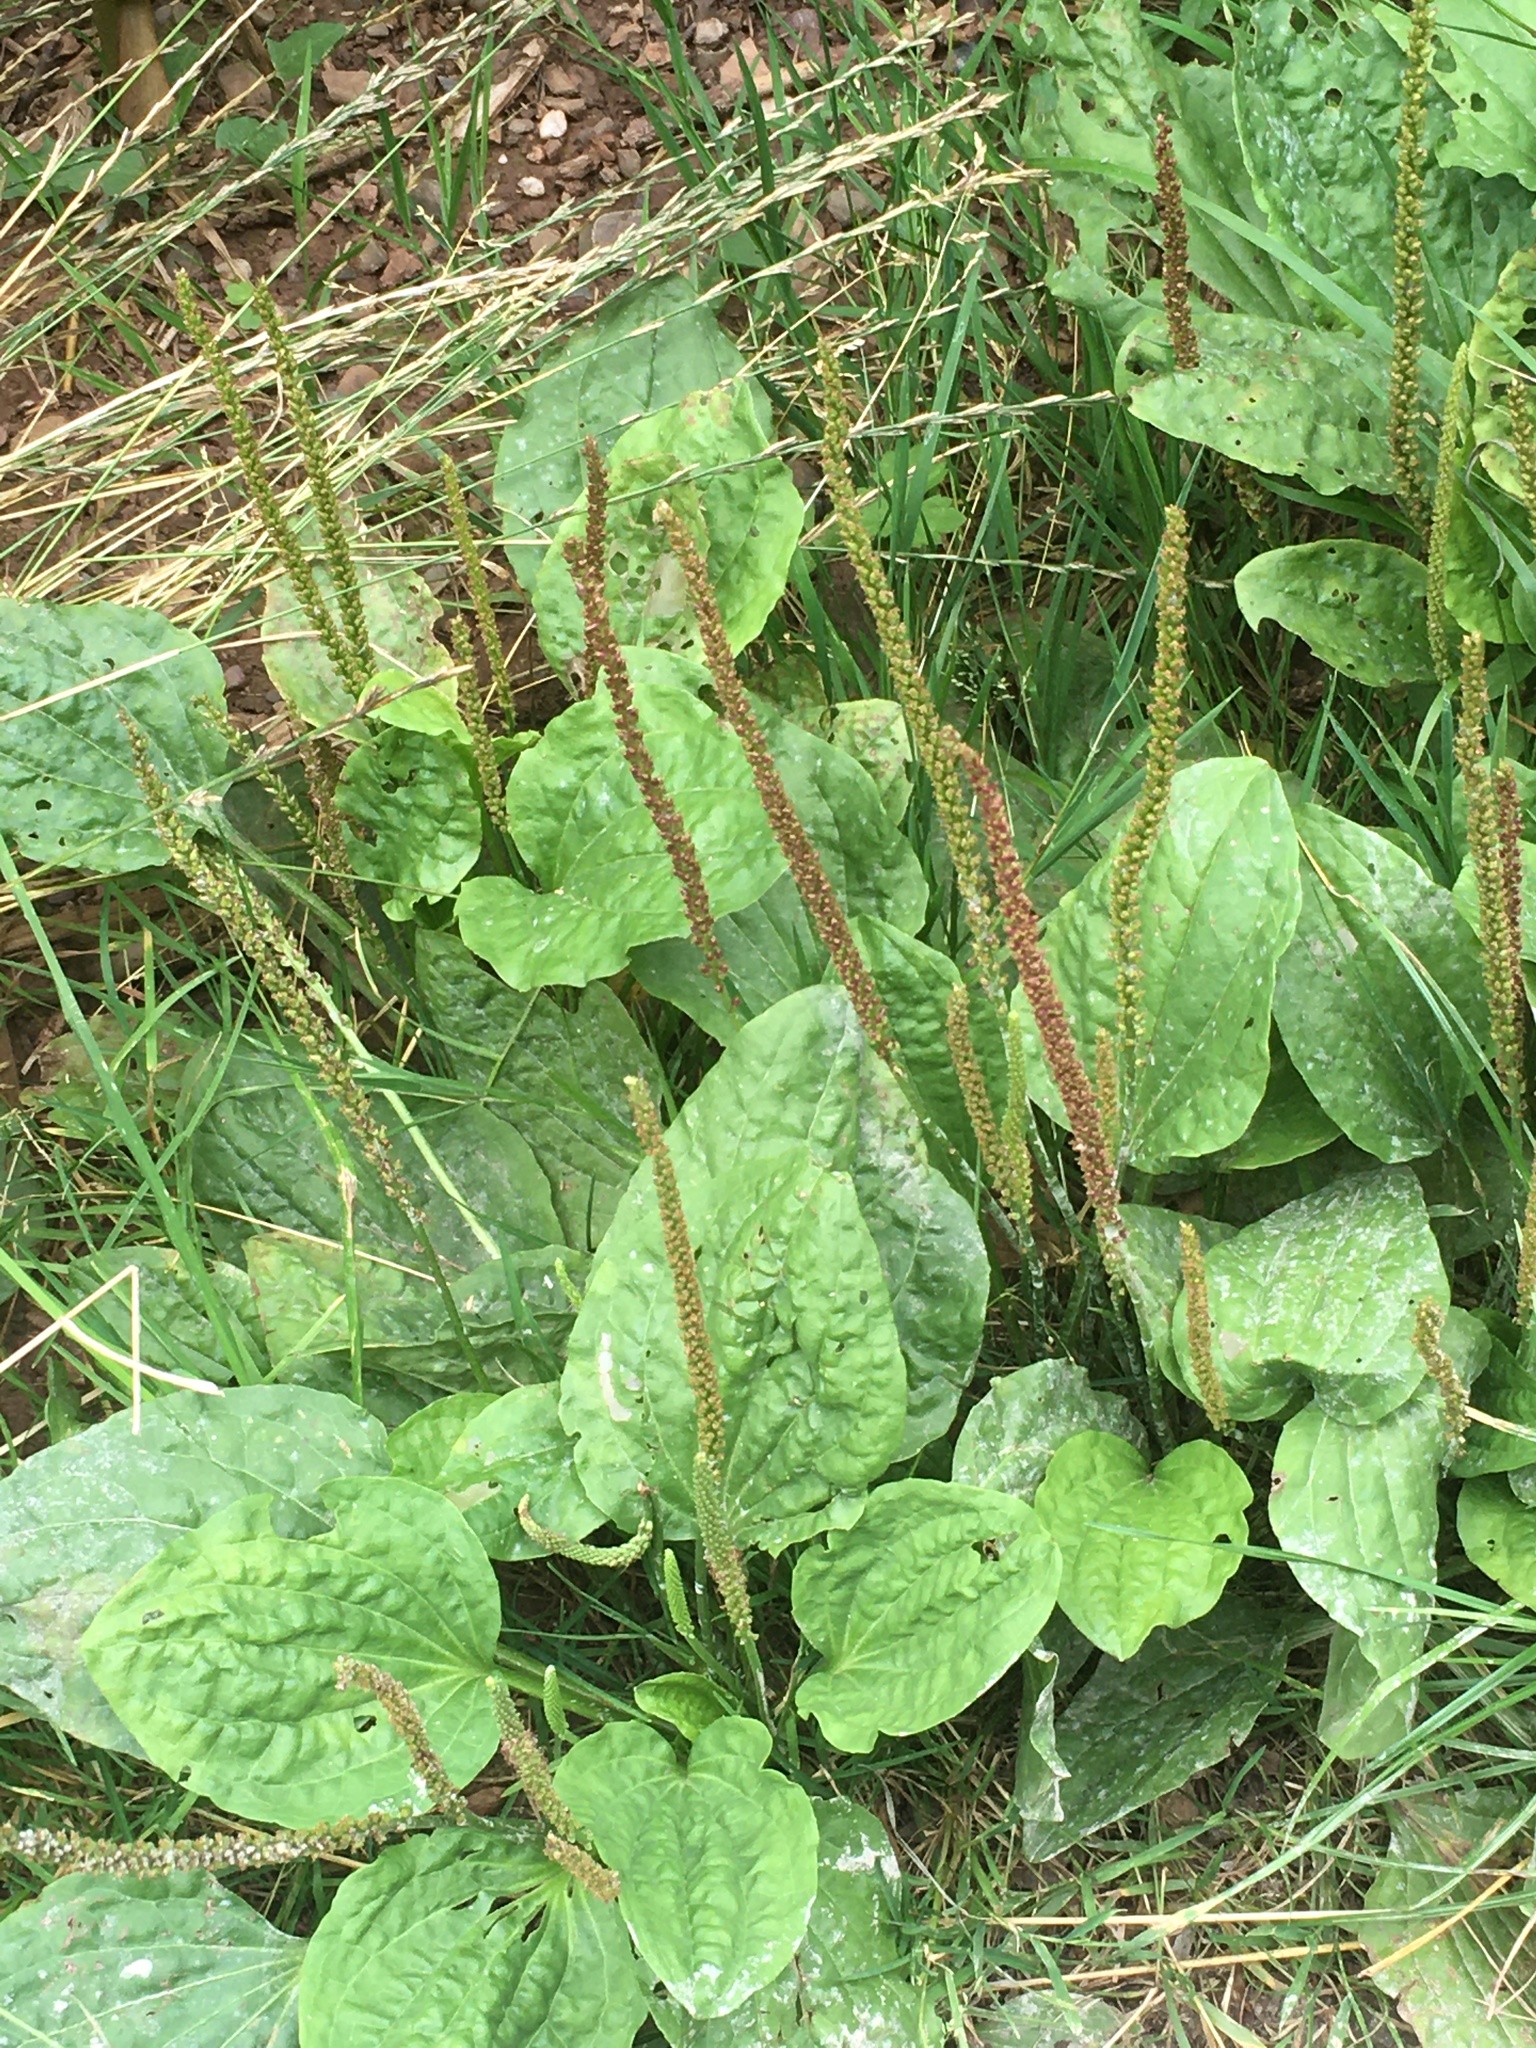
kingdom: Plantae
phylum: Tracheophyta
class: Magnoliopsida
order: Lamiales
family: Plantaginaceae
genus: Plantago
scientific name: Plantago major
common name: Common plantain
